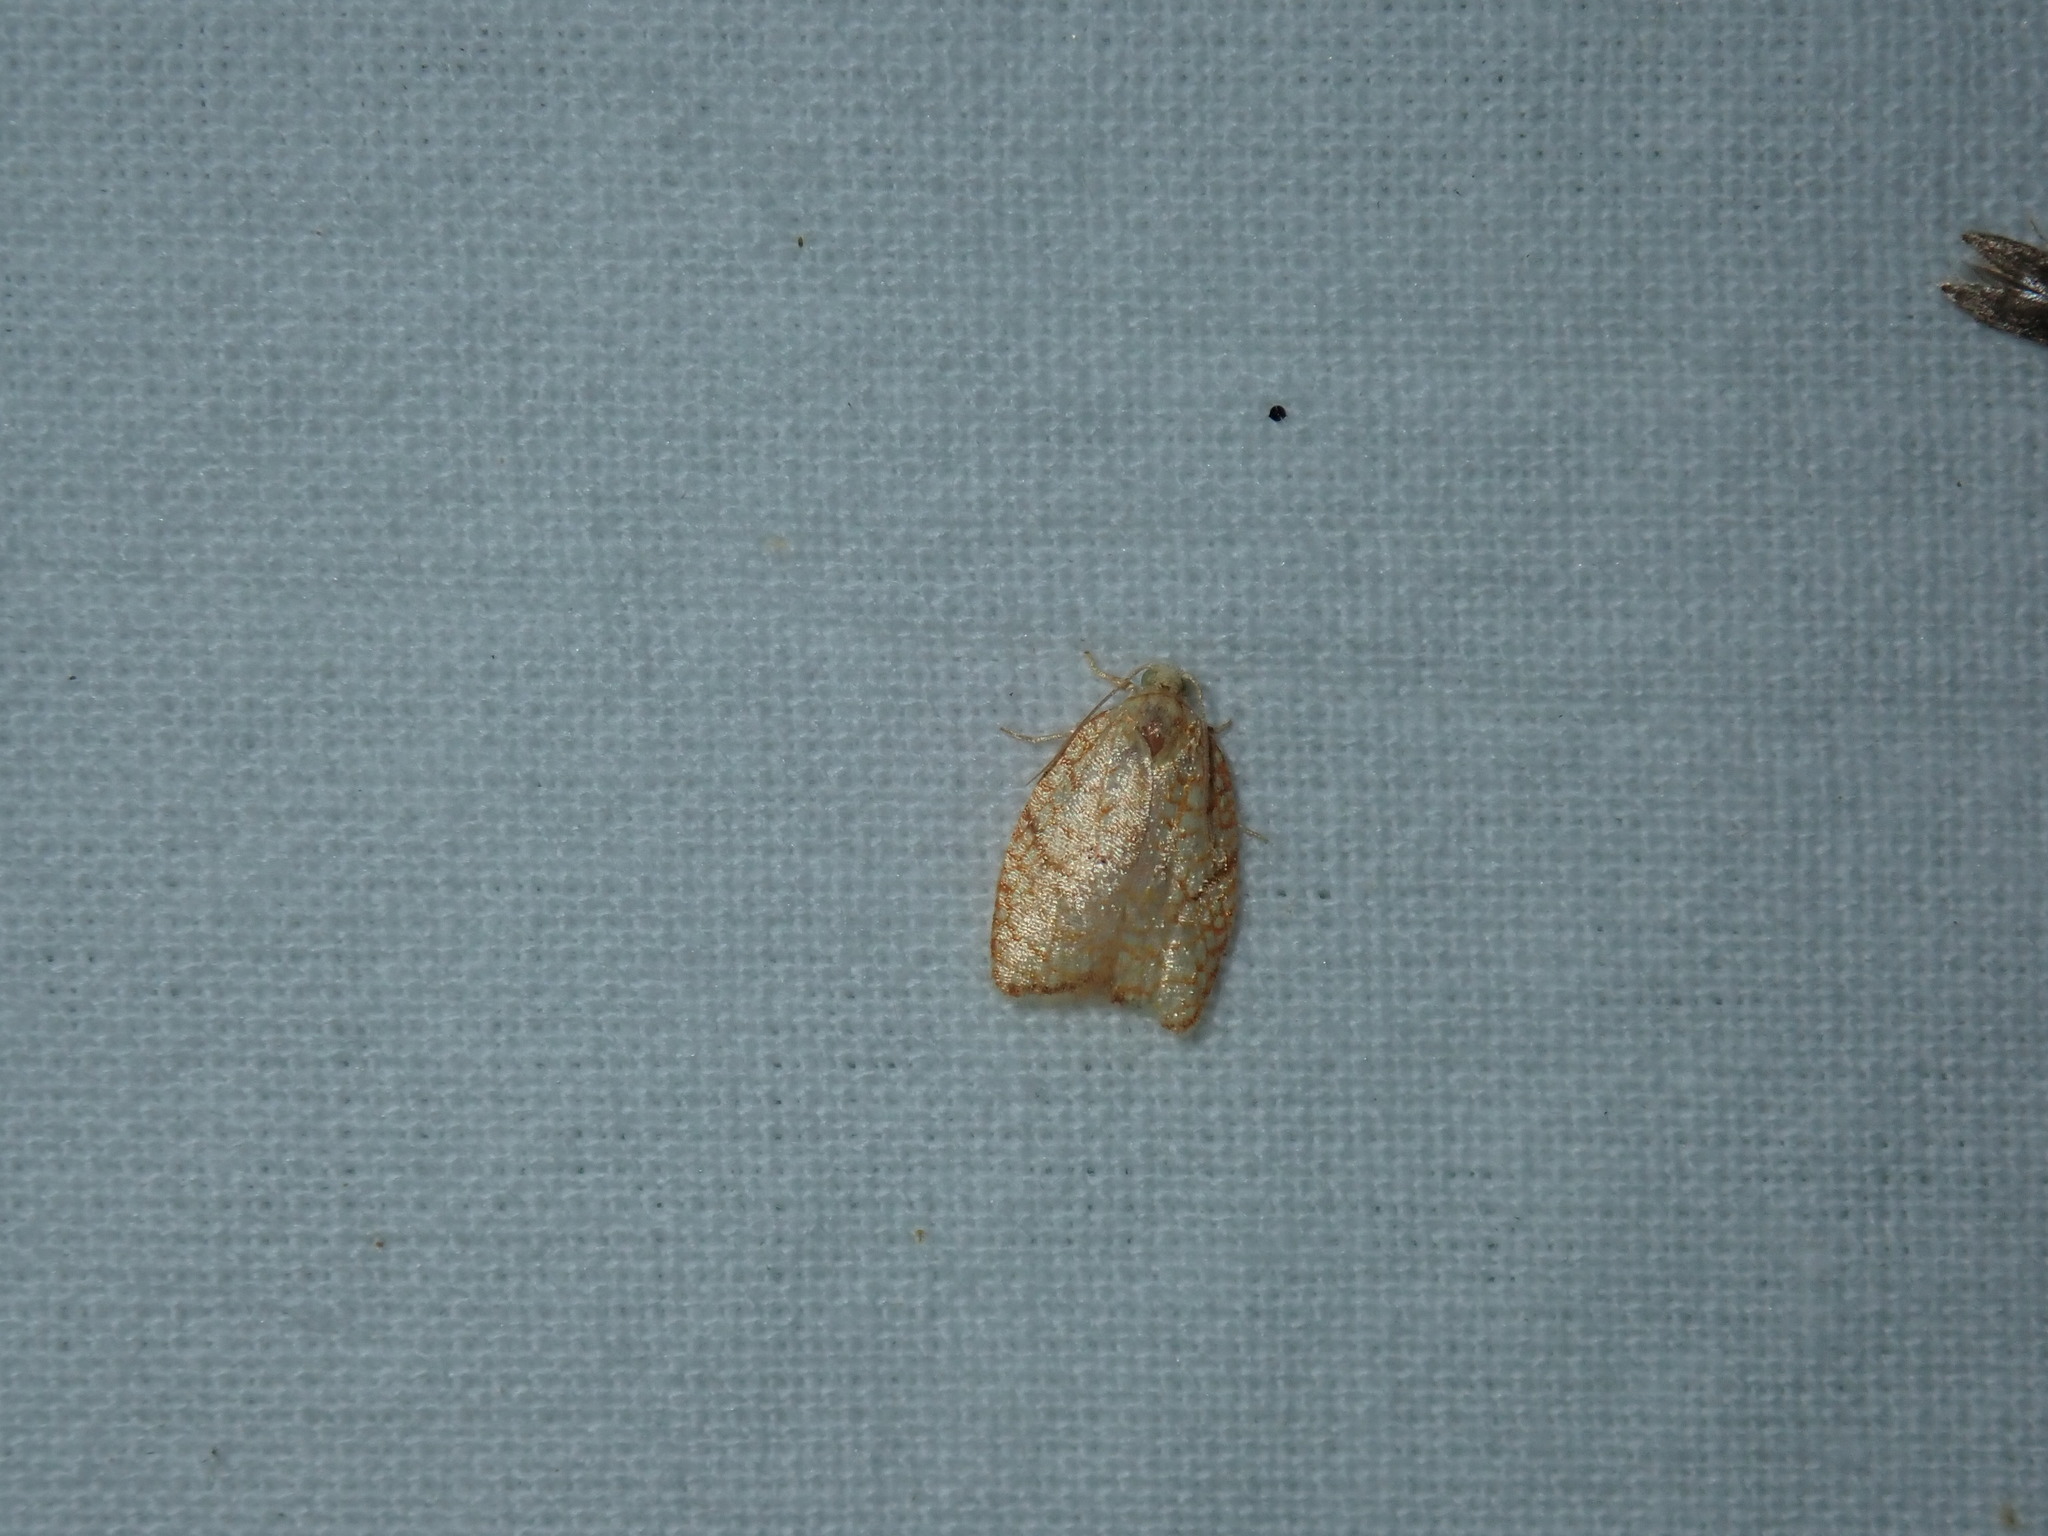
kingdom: Animalia
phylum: Arthropoda
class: Insecta
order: Lepidoptera
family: Tortricidae
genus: Acleris
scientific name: Acleris forsskaleana
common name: Maple button
